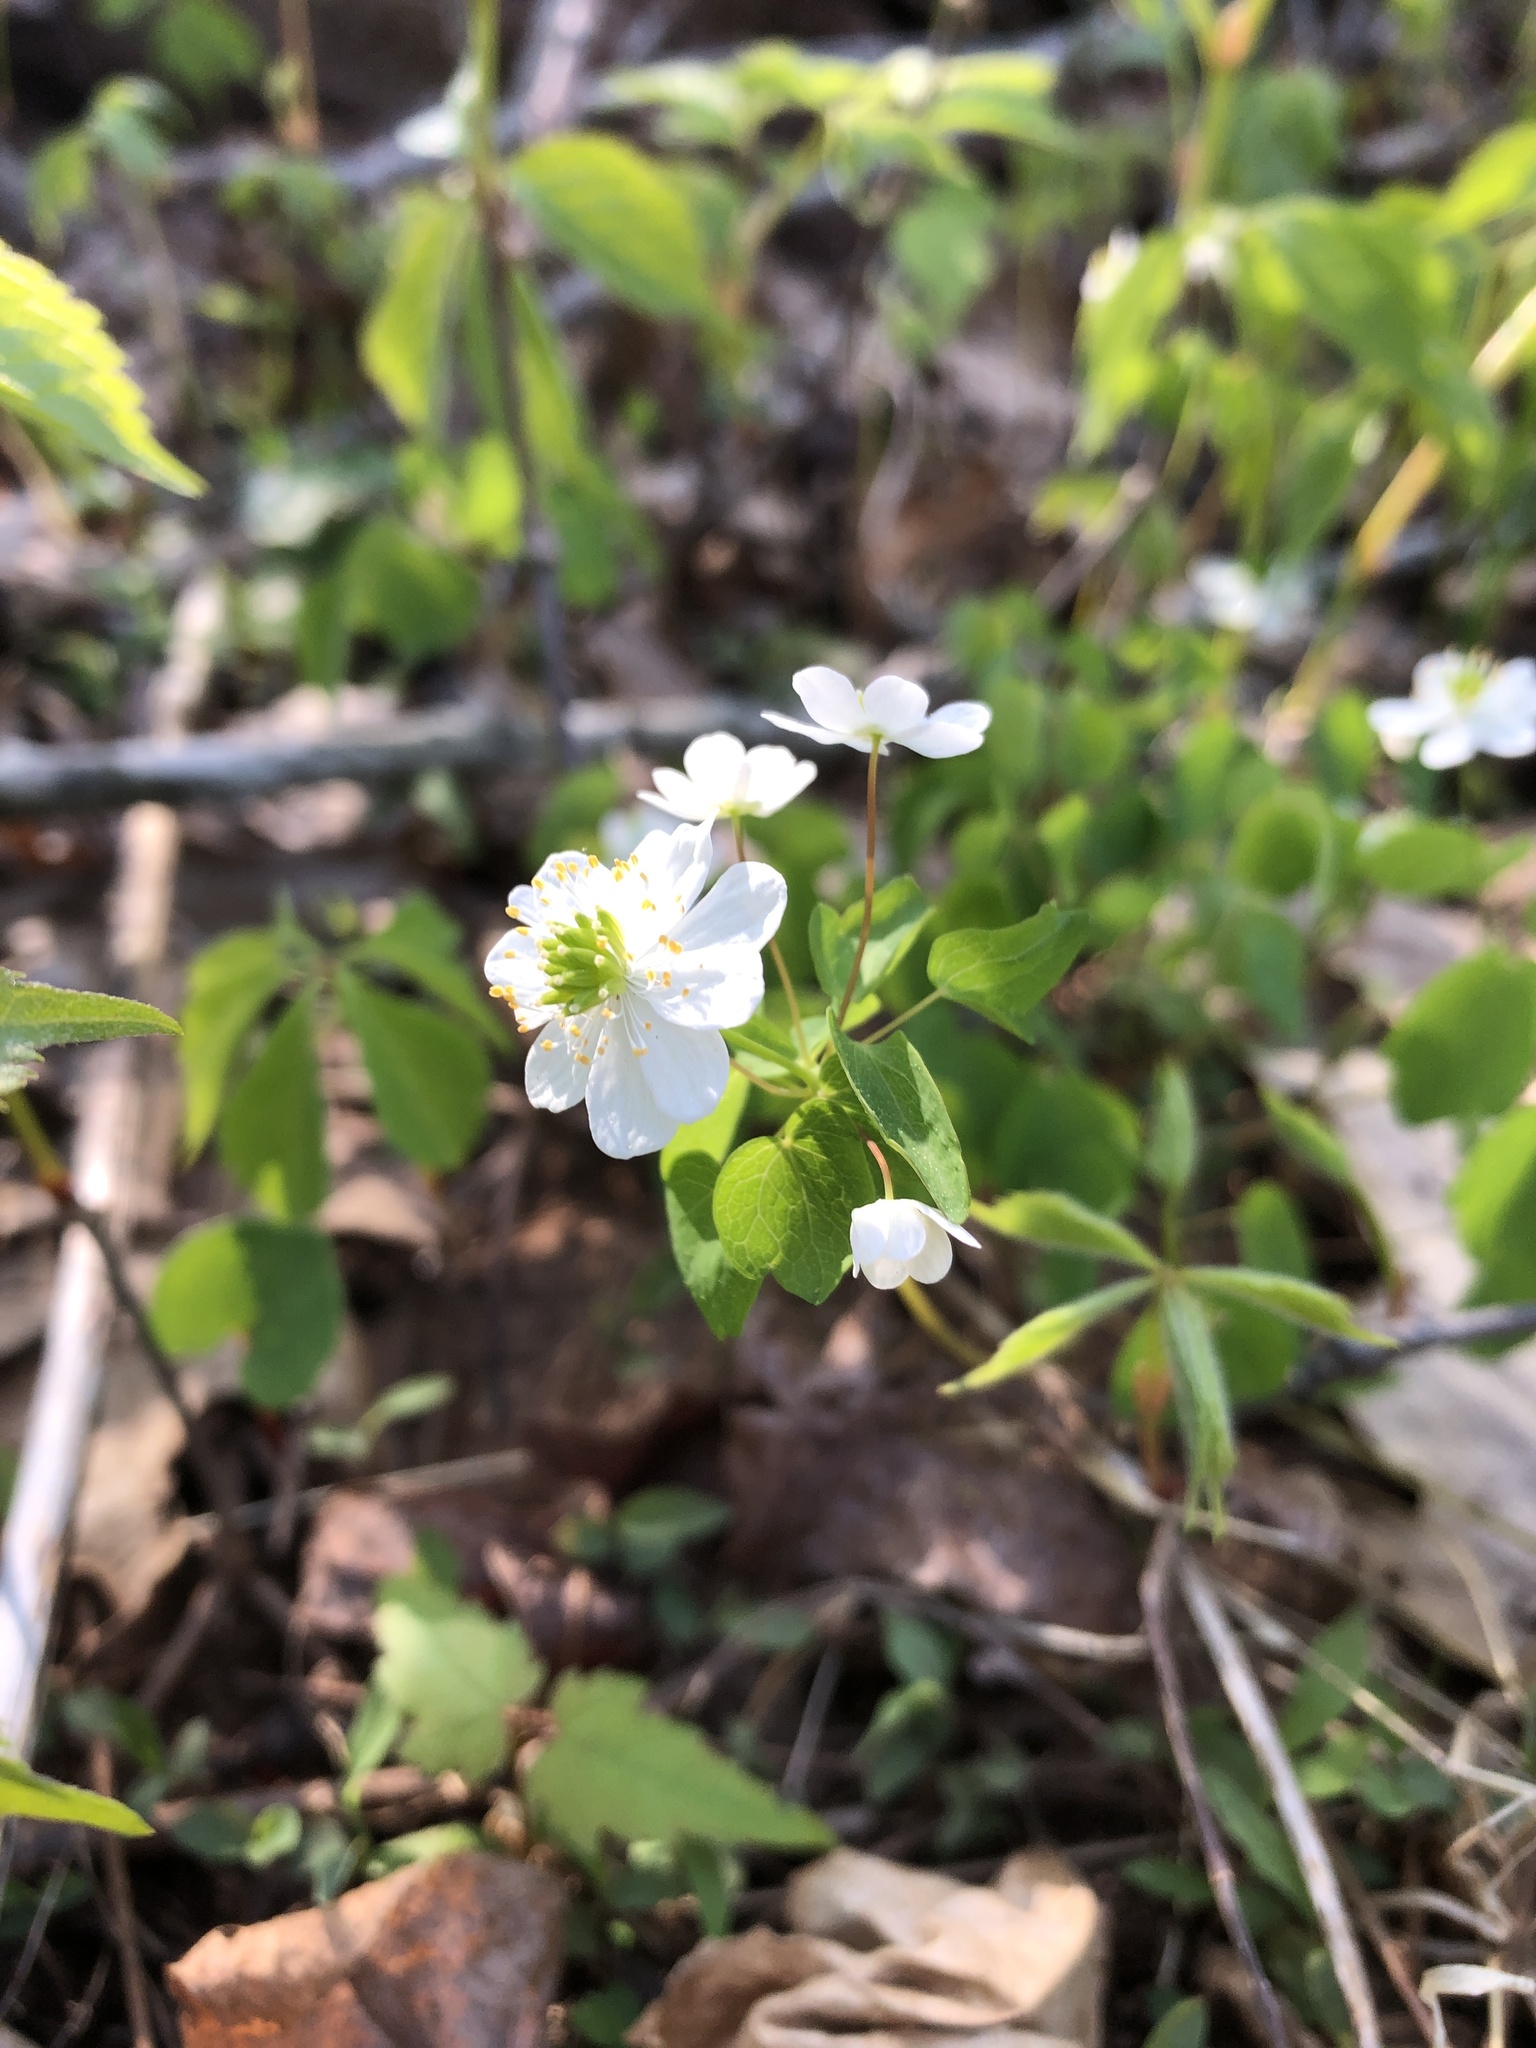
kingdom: Plantae
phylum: Tracheophyta
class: Magnoliopsida
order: Ranunculales
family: Ranunculaceae
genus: Thalictrum
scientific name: Thalictrum thalictroides
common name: Rue-anemone
